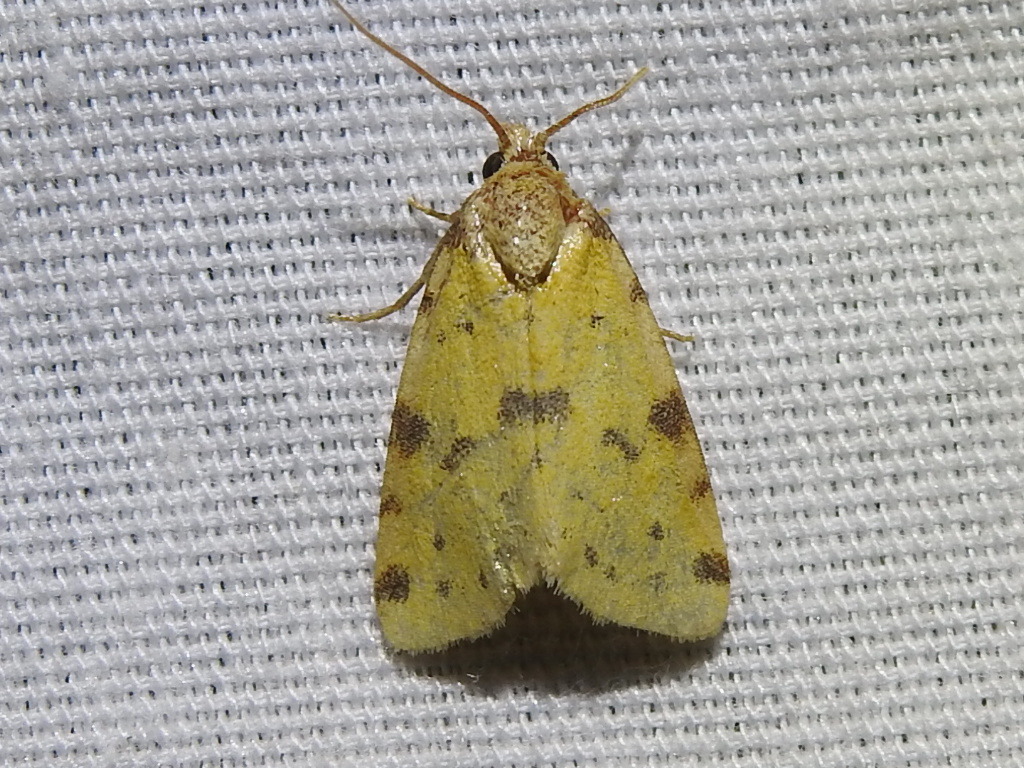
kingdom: Animalia
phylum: Arthropoda
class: Insecta
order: Lepidoptera
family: Noctuidae
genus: Azenia
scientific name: Azenia obtusa
